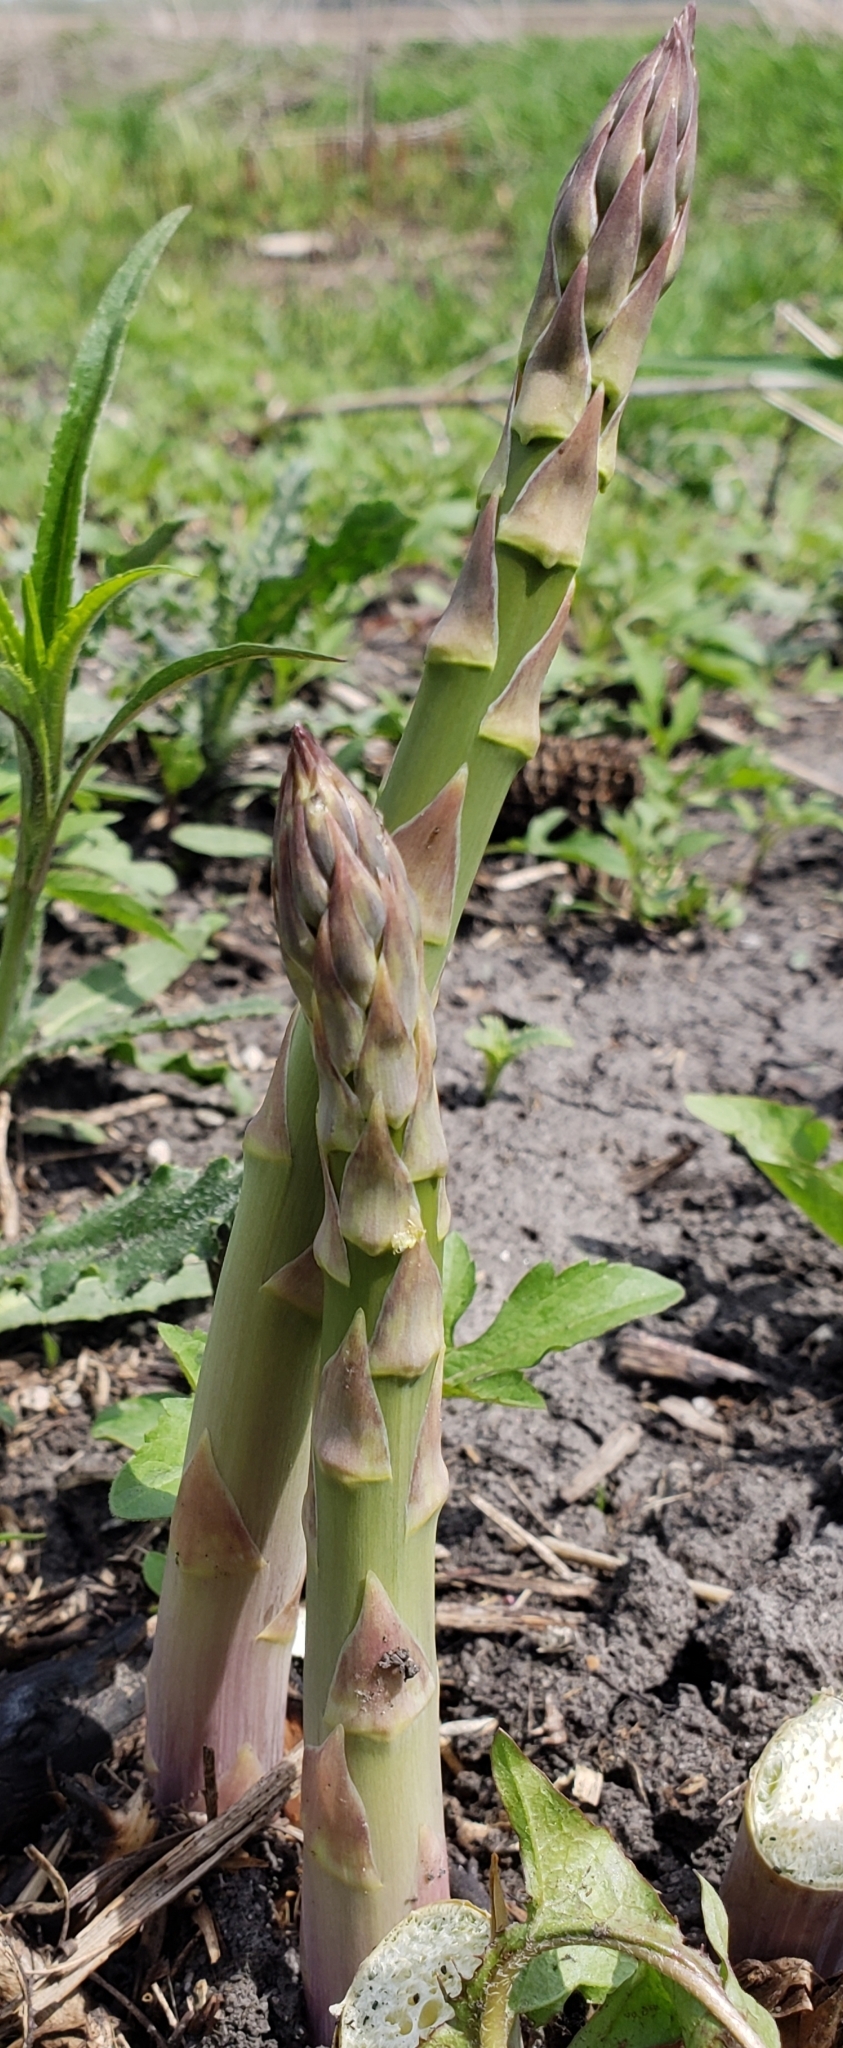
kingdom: Plantae
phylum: Tracheophyta
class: Liliopsida
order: Asparagales
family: Asparagaceae
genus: Asparagus
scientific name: Asparagus officinalis
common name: Garden asparagus
